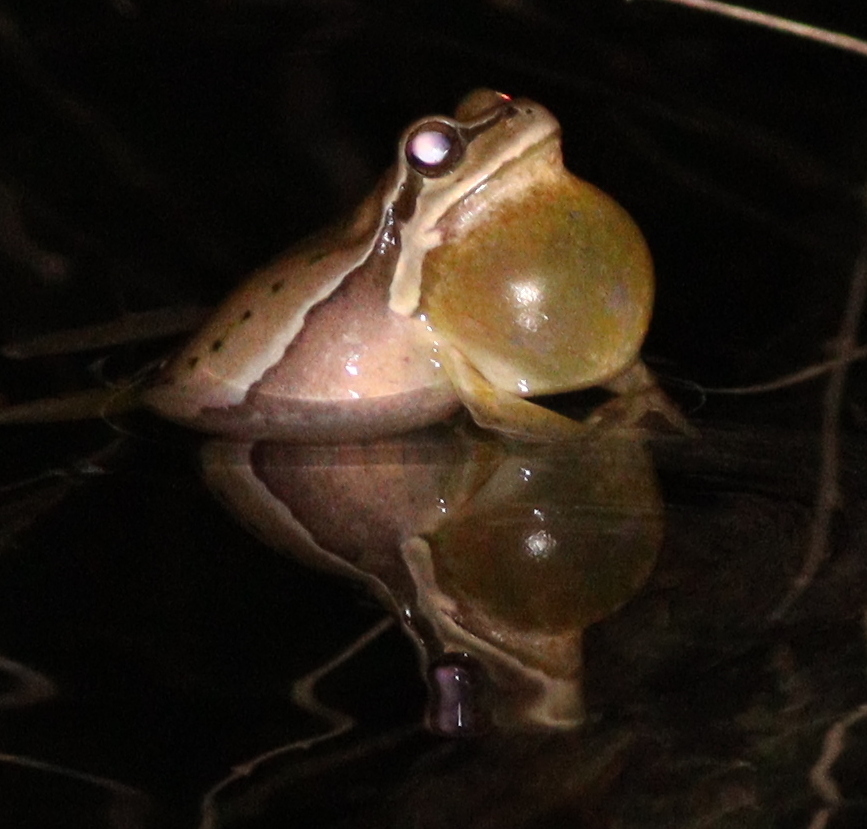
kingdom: Animalia
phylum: Chordata
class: Amphibia
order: Anura
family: Hylidae
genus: Hyla
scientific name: Hyla savignyi
